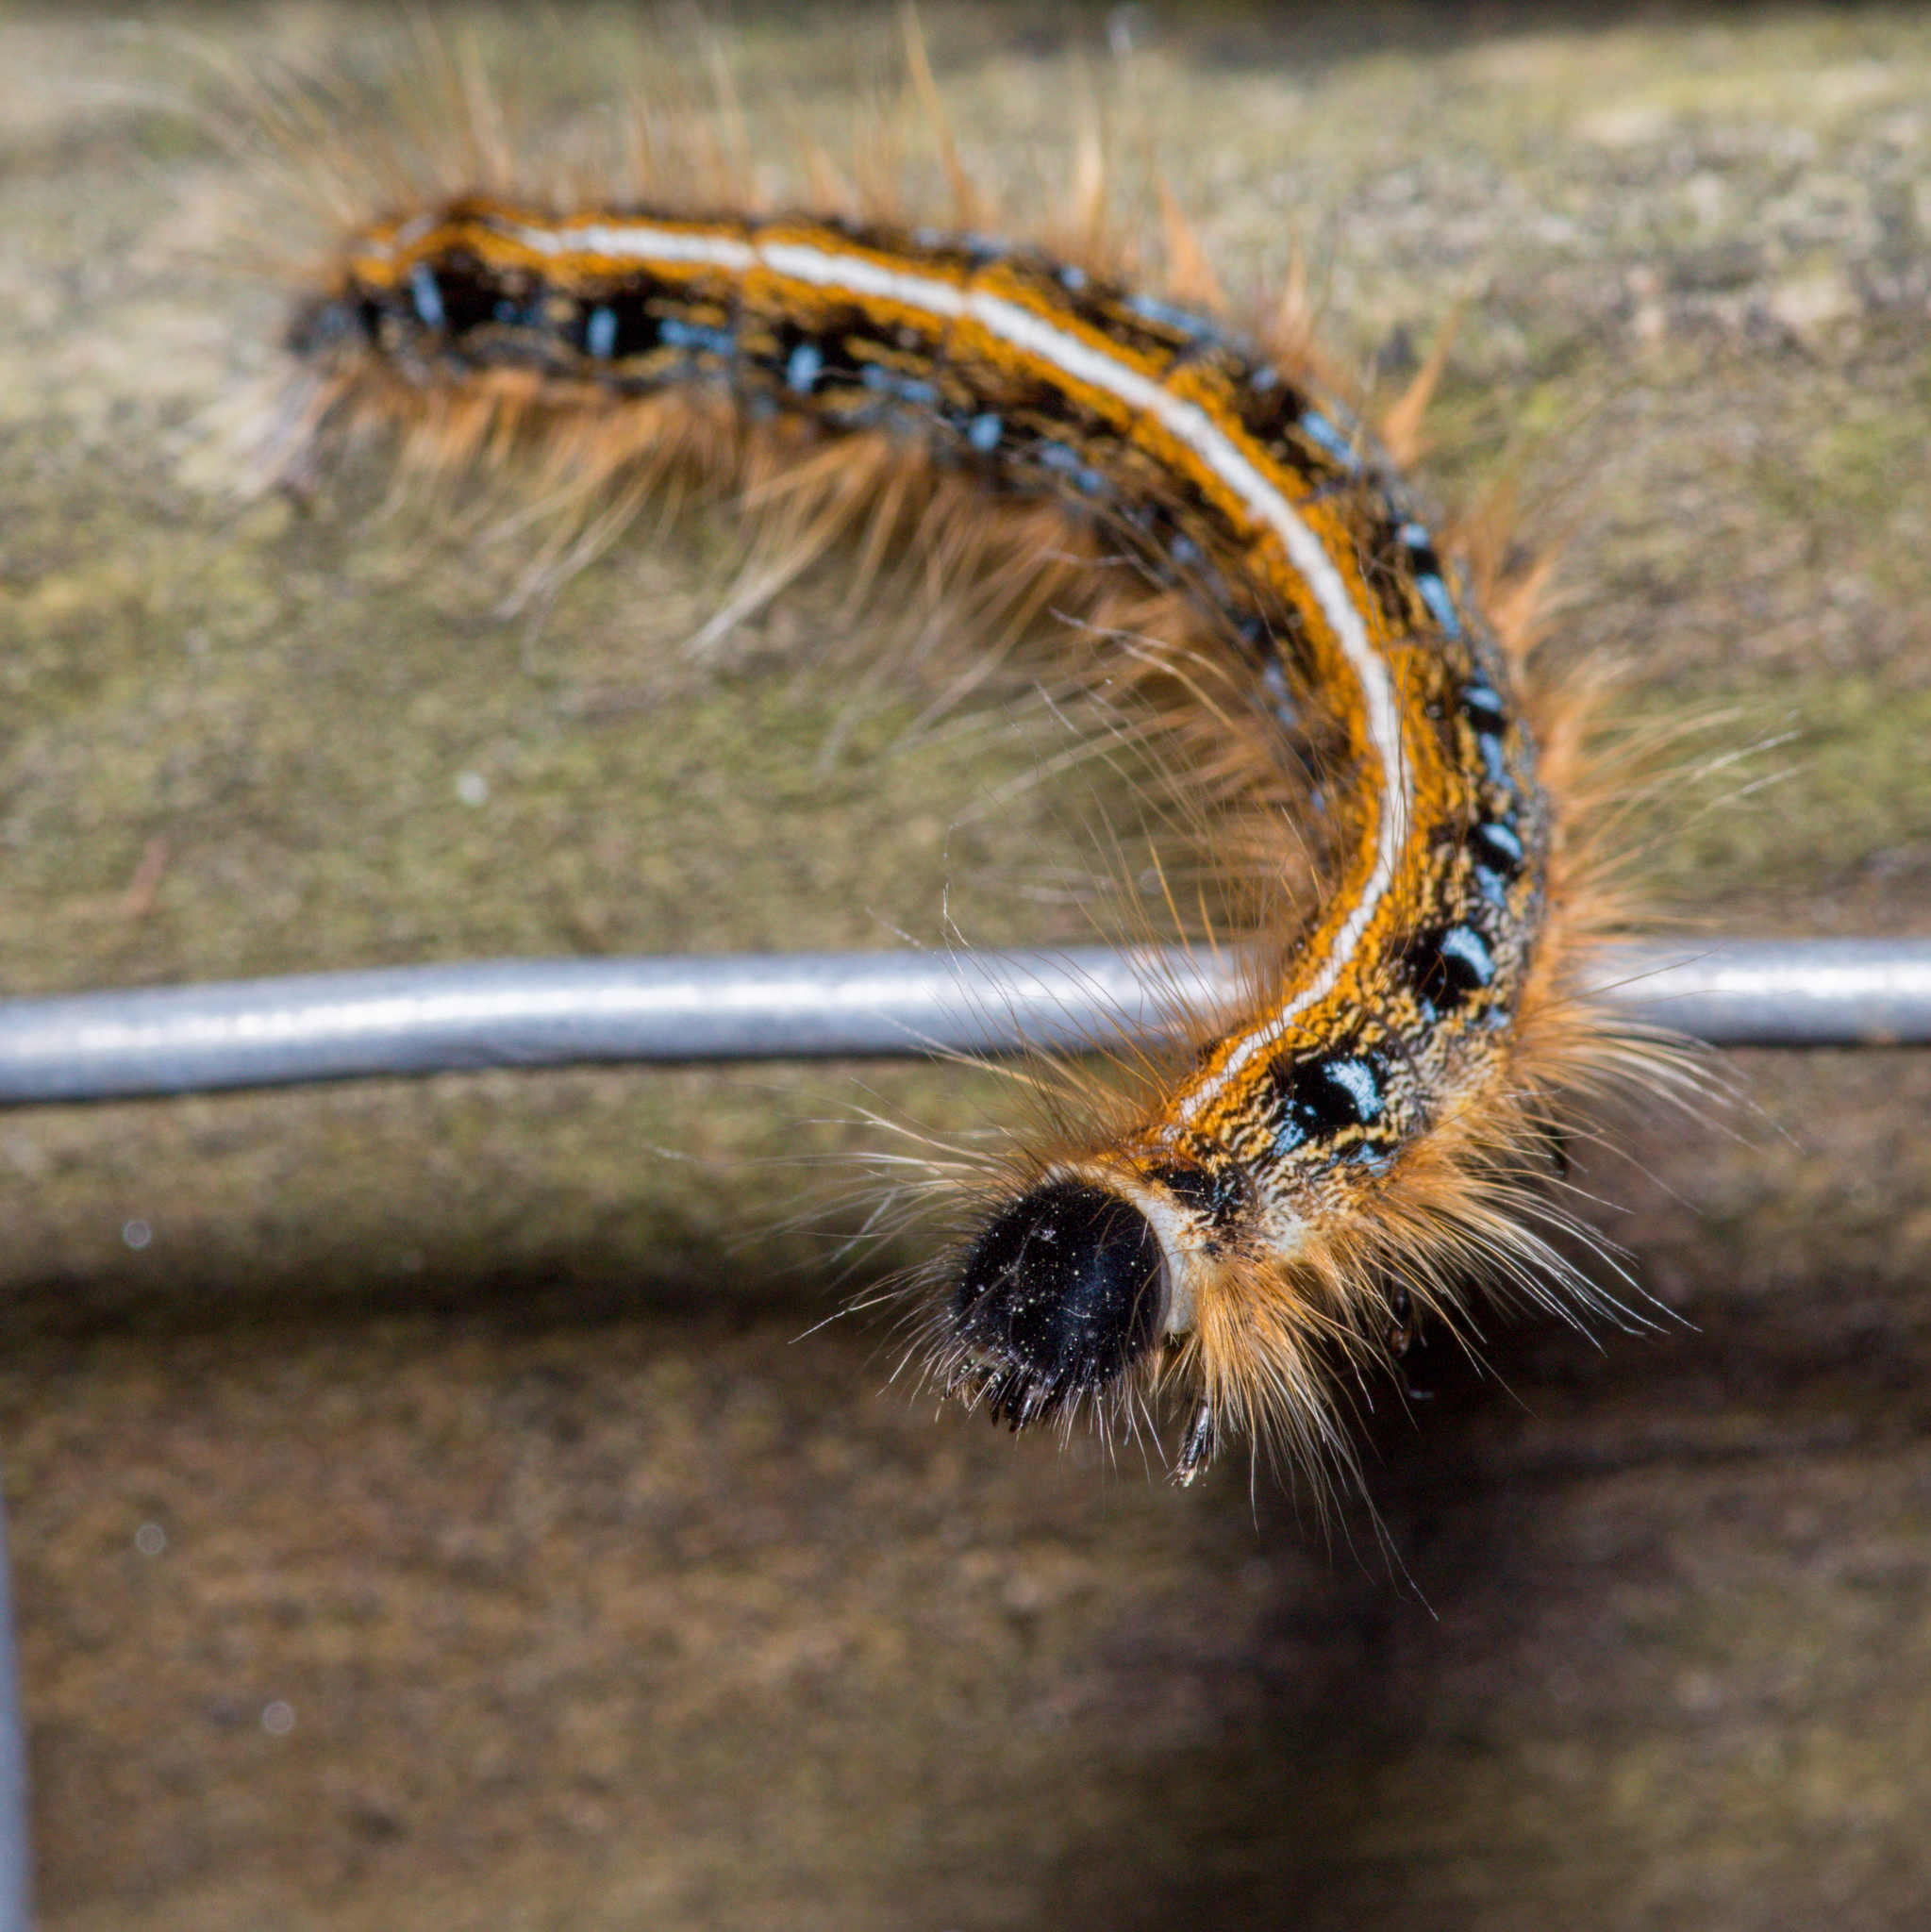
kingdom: Animalia
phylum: Arthropoda
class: Insecta
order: Lepidoptera
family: Lasiocampidae
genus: Malacosoma
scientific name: Malacosoma americana
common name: Eastern tent caterpillar moth
